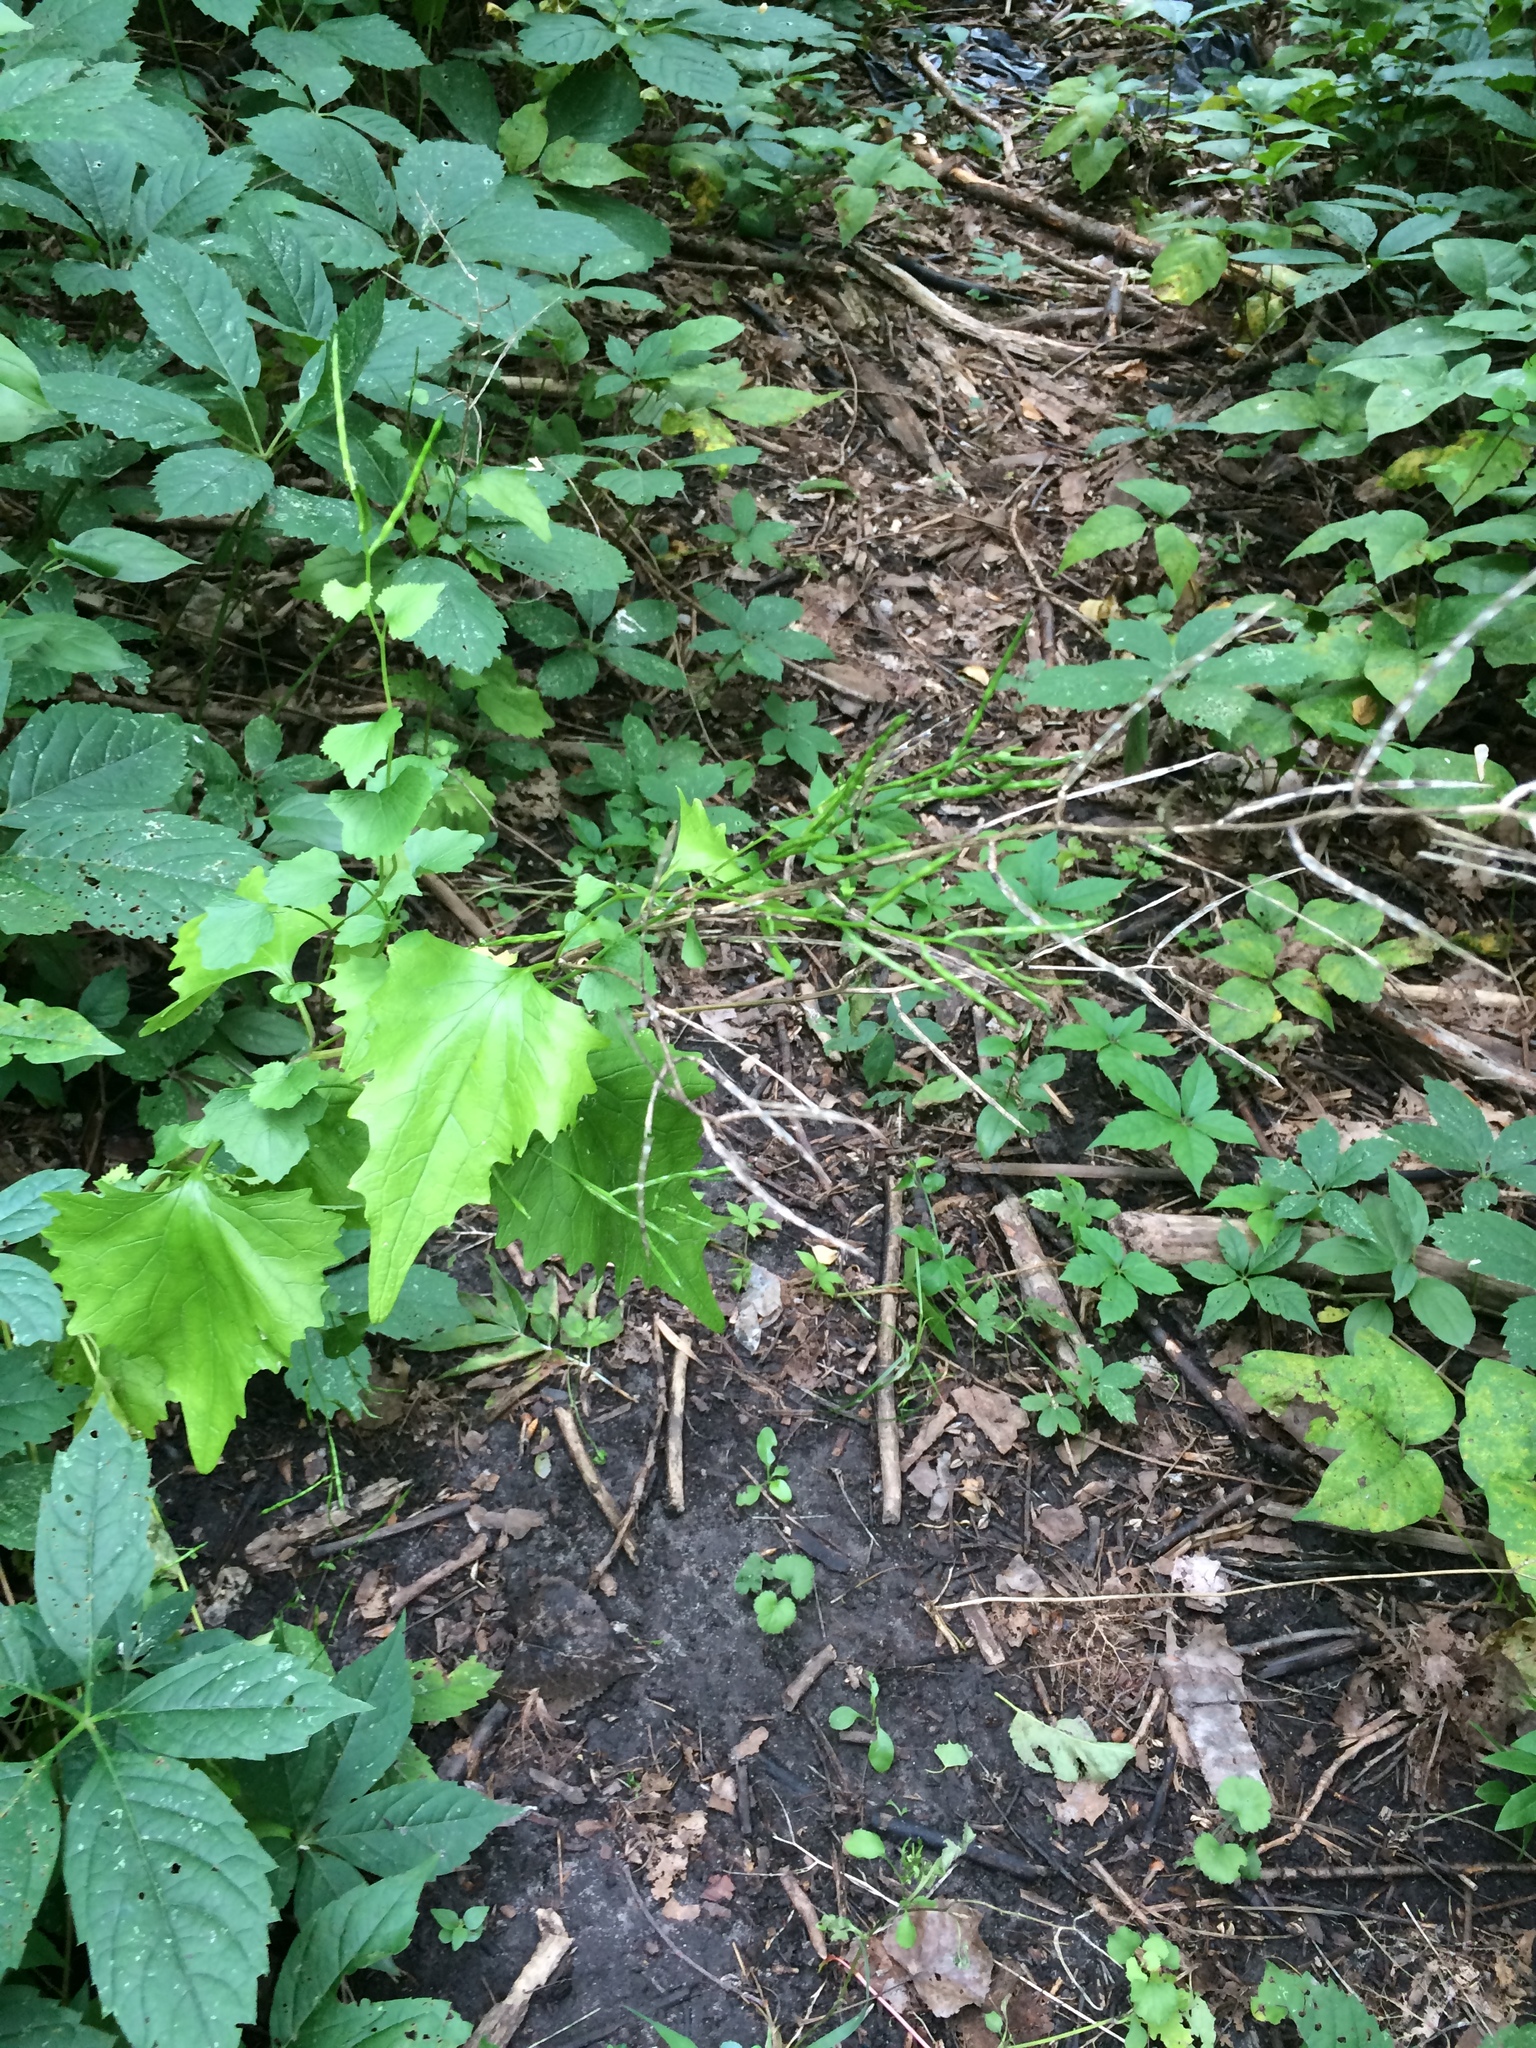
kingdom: Plantae
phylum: Tracheophyta
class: Magnoliopsida
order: Brassicales
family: Brassicaceae
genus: Alliaria
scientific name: Alliaria petiolata
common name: Garlic mustard
